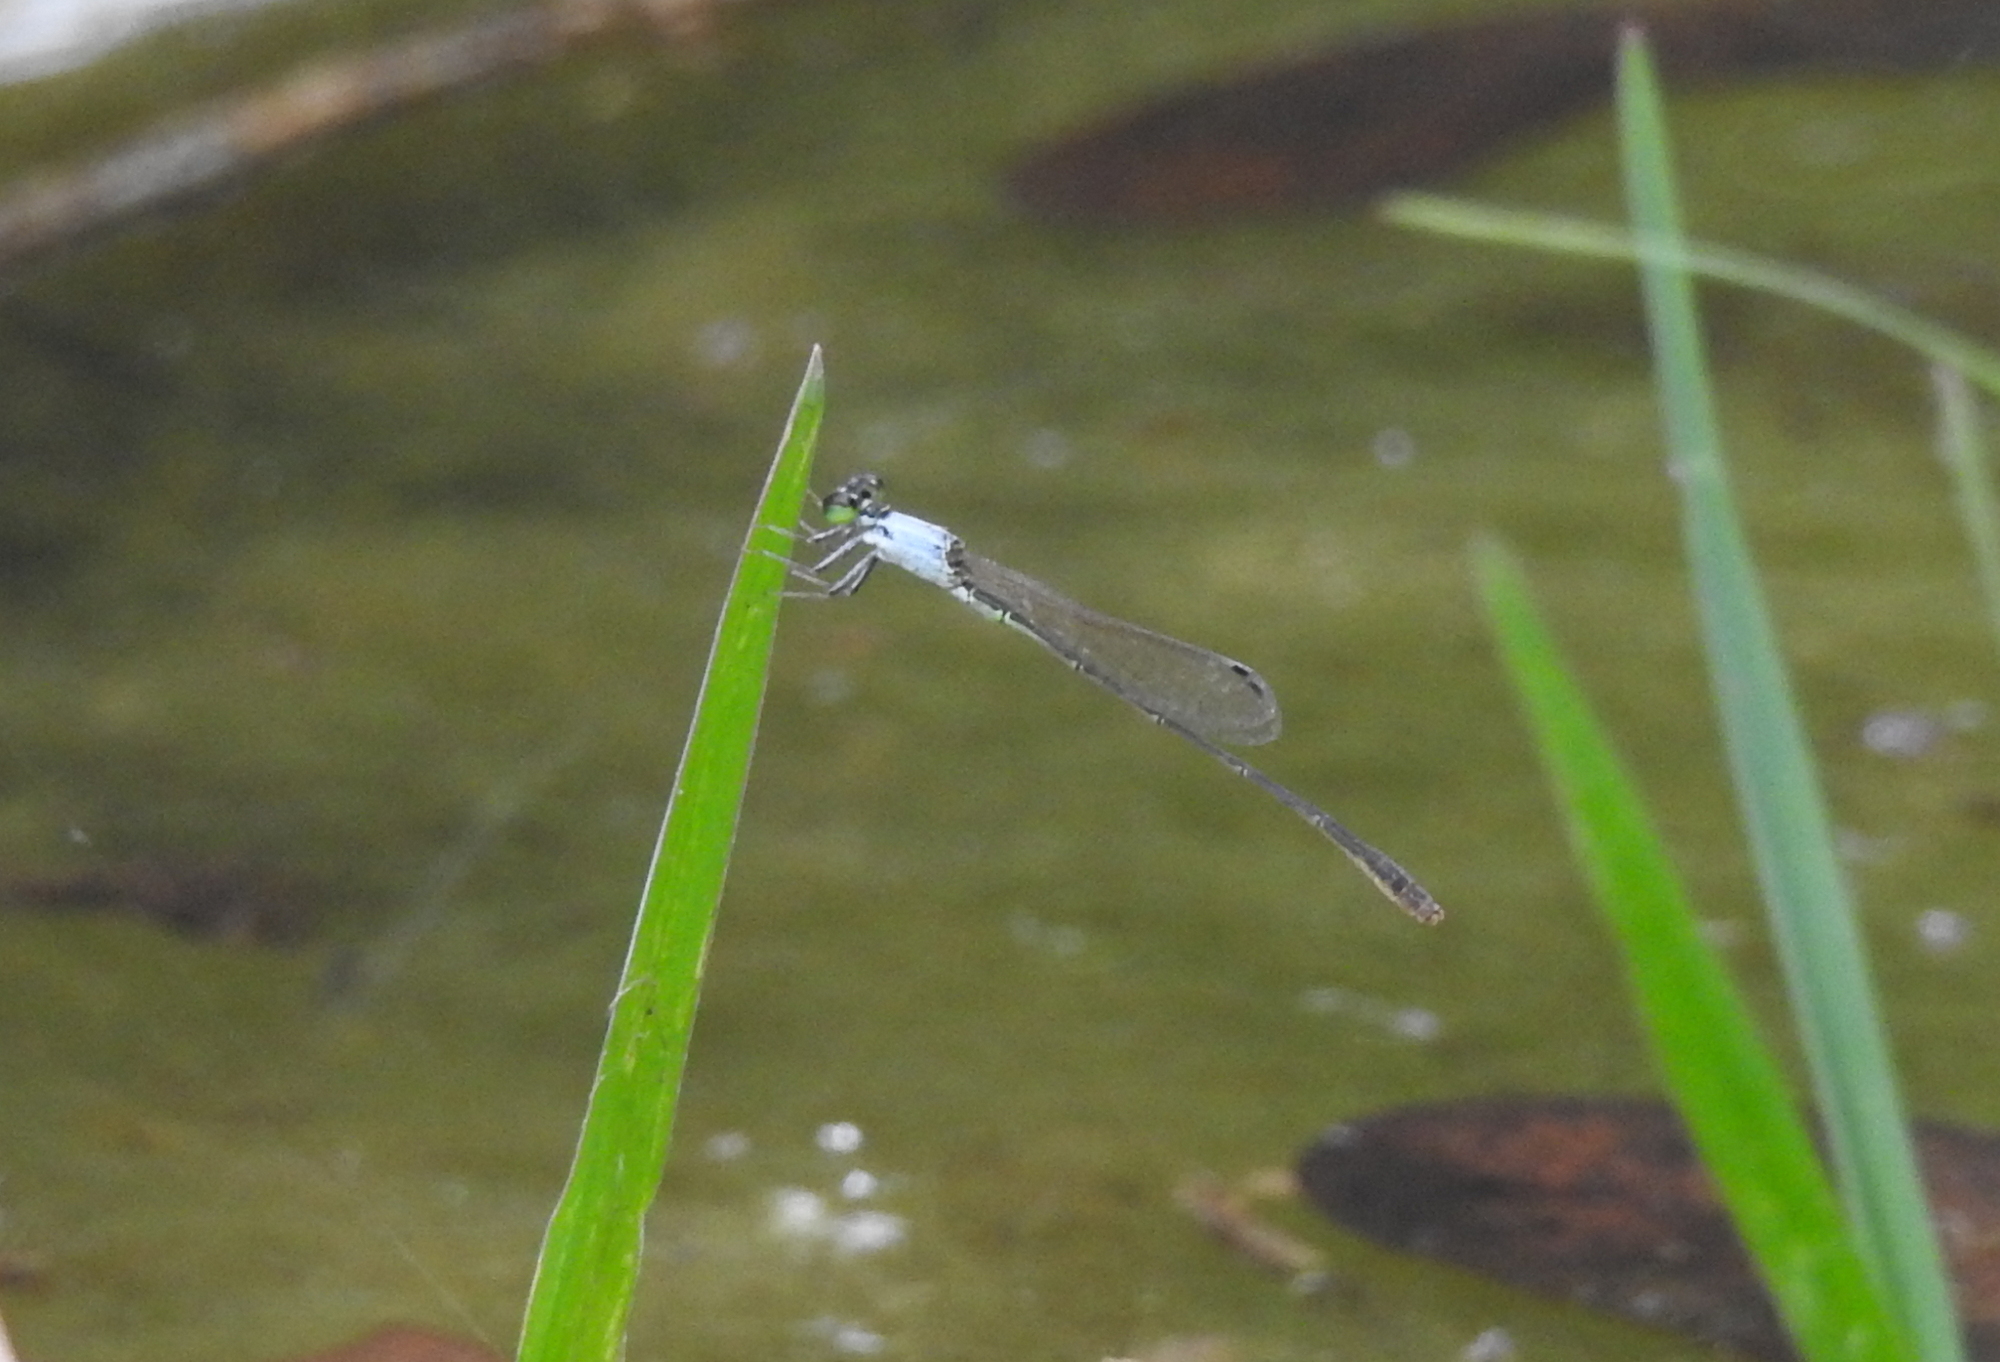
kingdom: Animalia
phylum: Arthropoda
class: Insecta
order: Odonata
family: Coenagrionidae
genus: Agriocnemis
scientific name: Agriocnemis pygmaea
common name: Pygmy wisp
